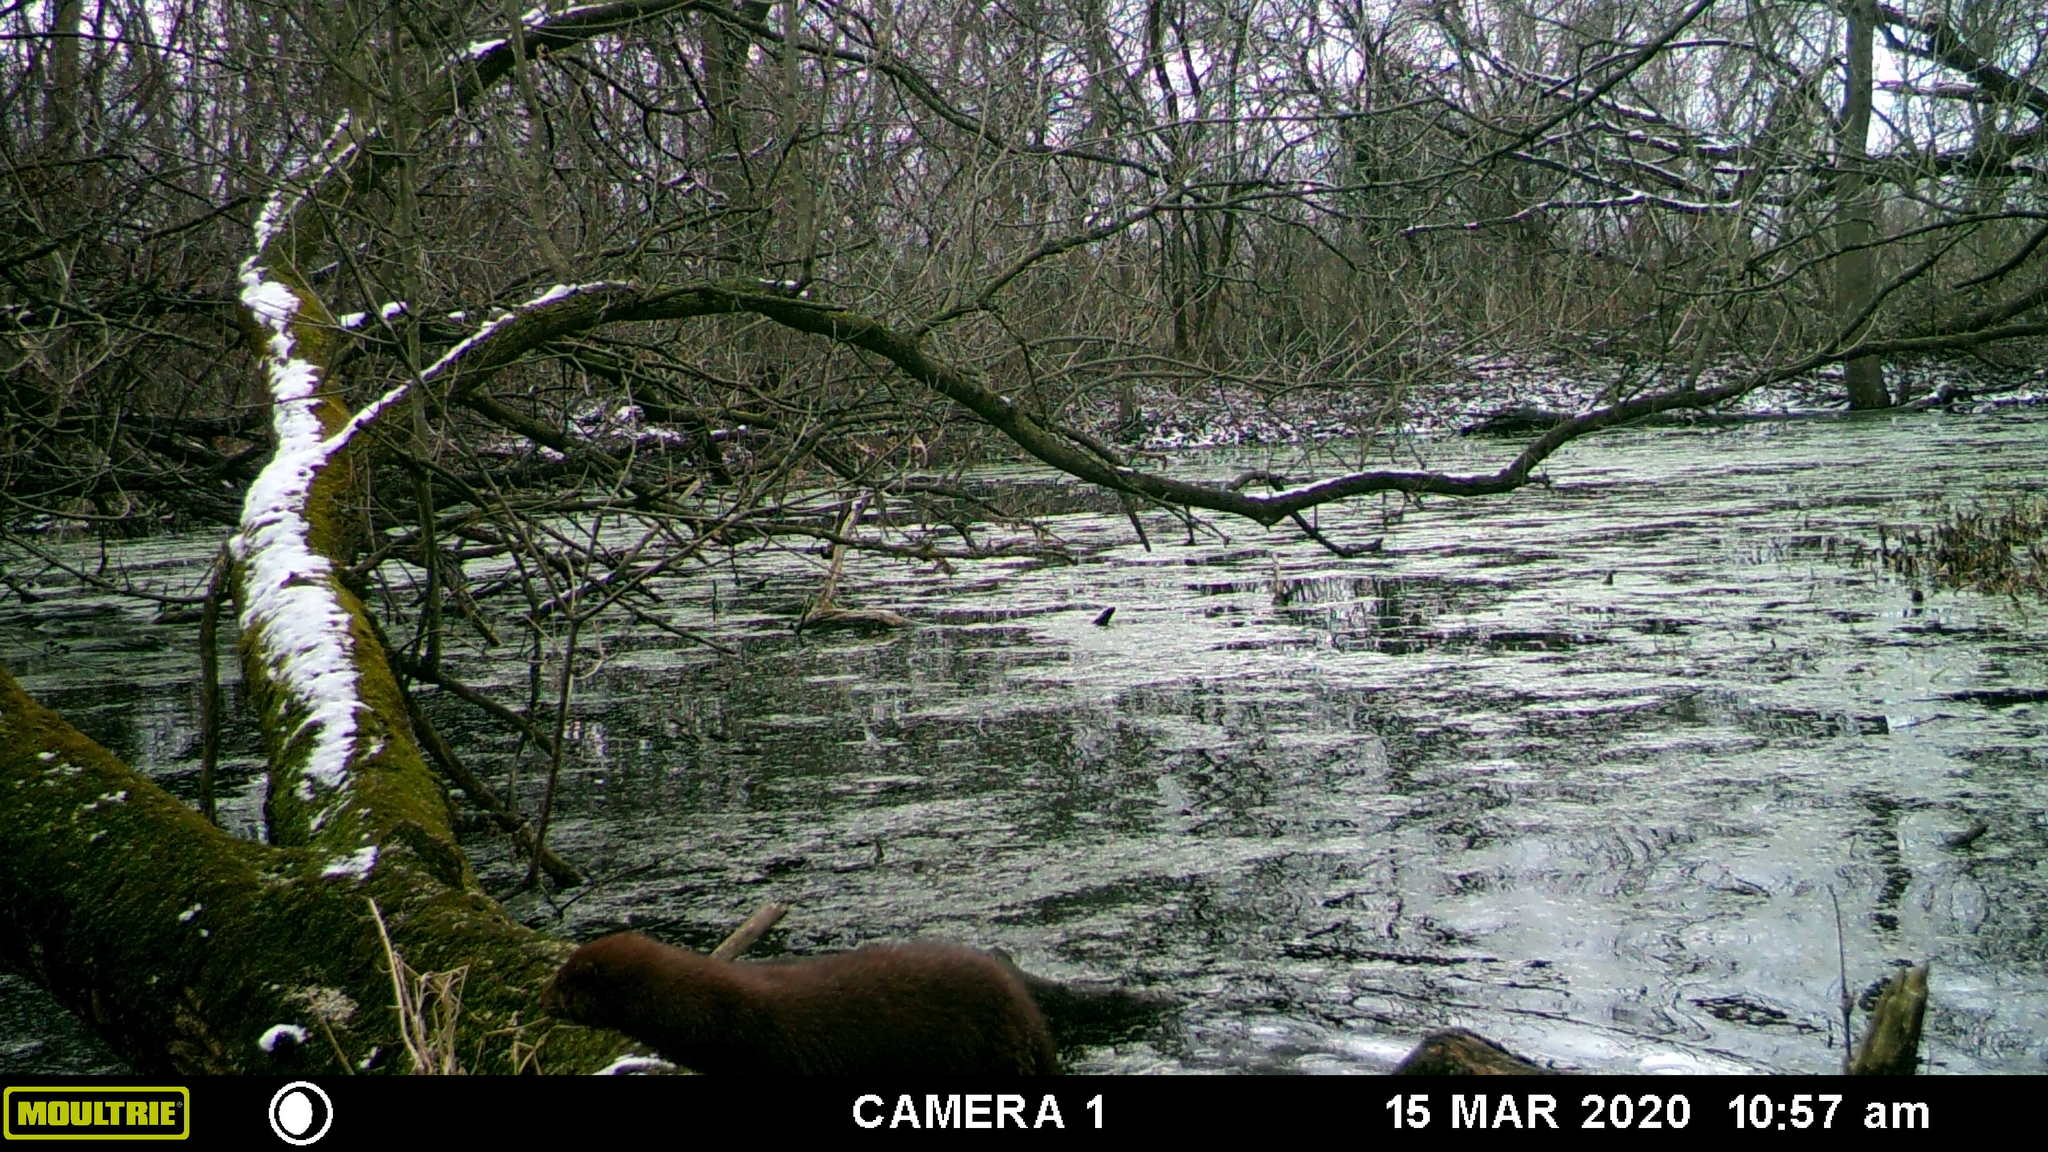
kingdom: Animalia
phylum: Chordata
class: Mammalia
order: Carnivora
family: Mustelidae
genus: Mustela
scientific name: Mustela
